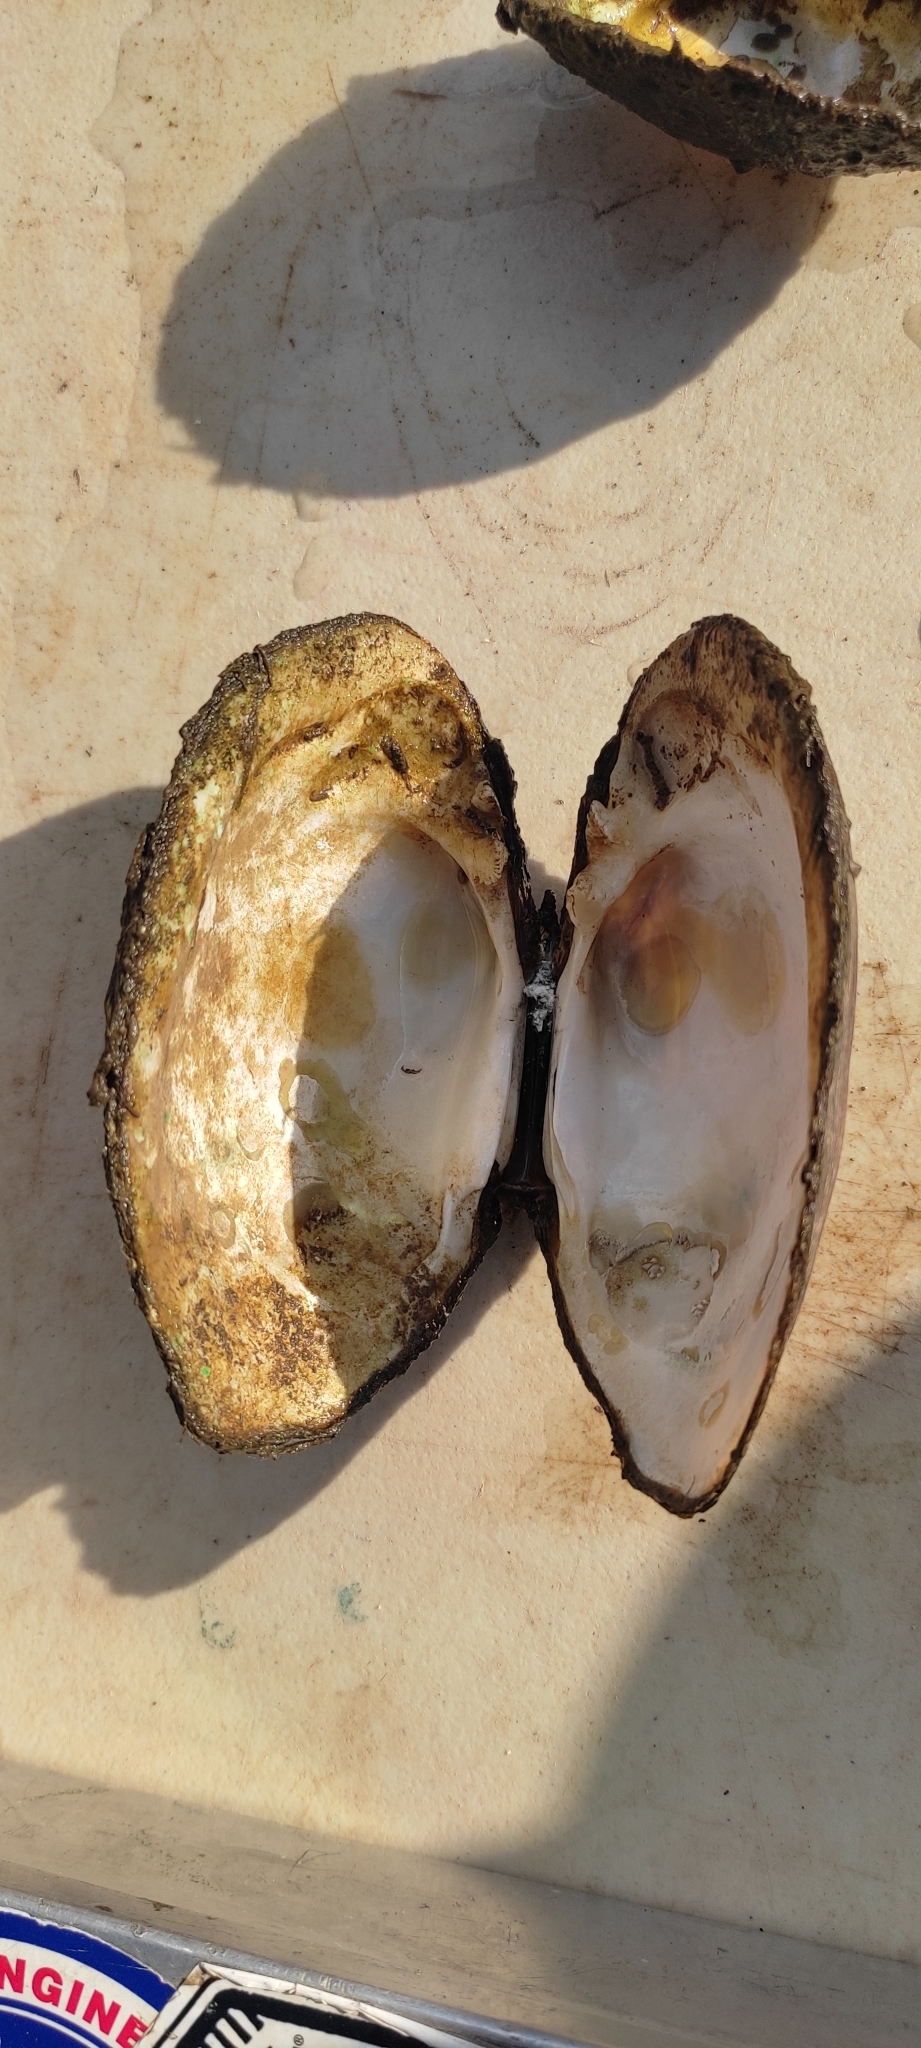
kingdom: Animalia
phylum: Mollusca
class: Bivalvia
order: Unionida
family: Unionidae
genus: Ortmanniana
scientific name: Ortmanniana ligamentina
